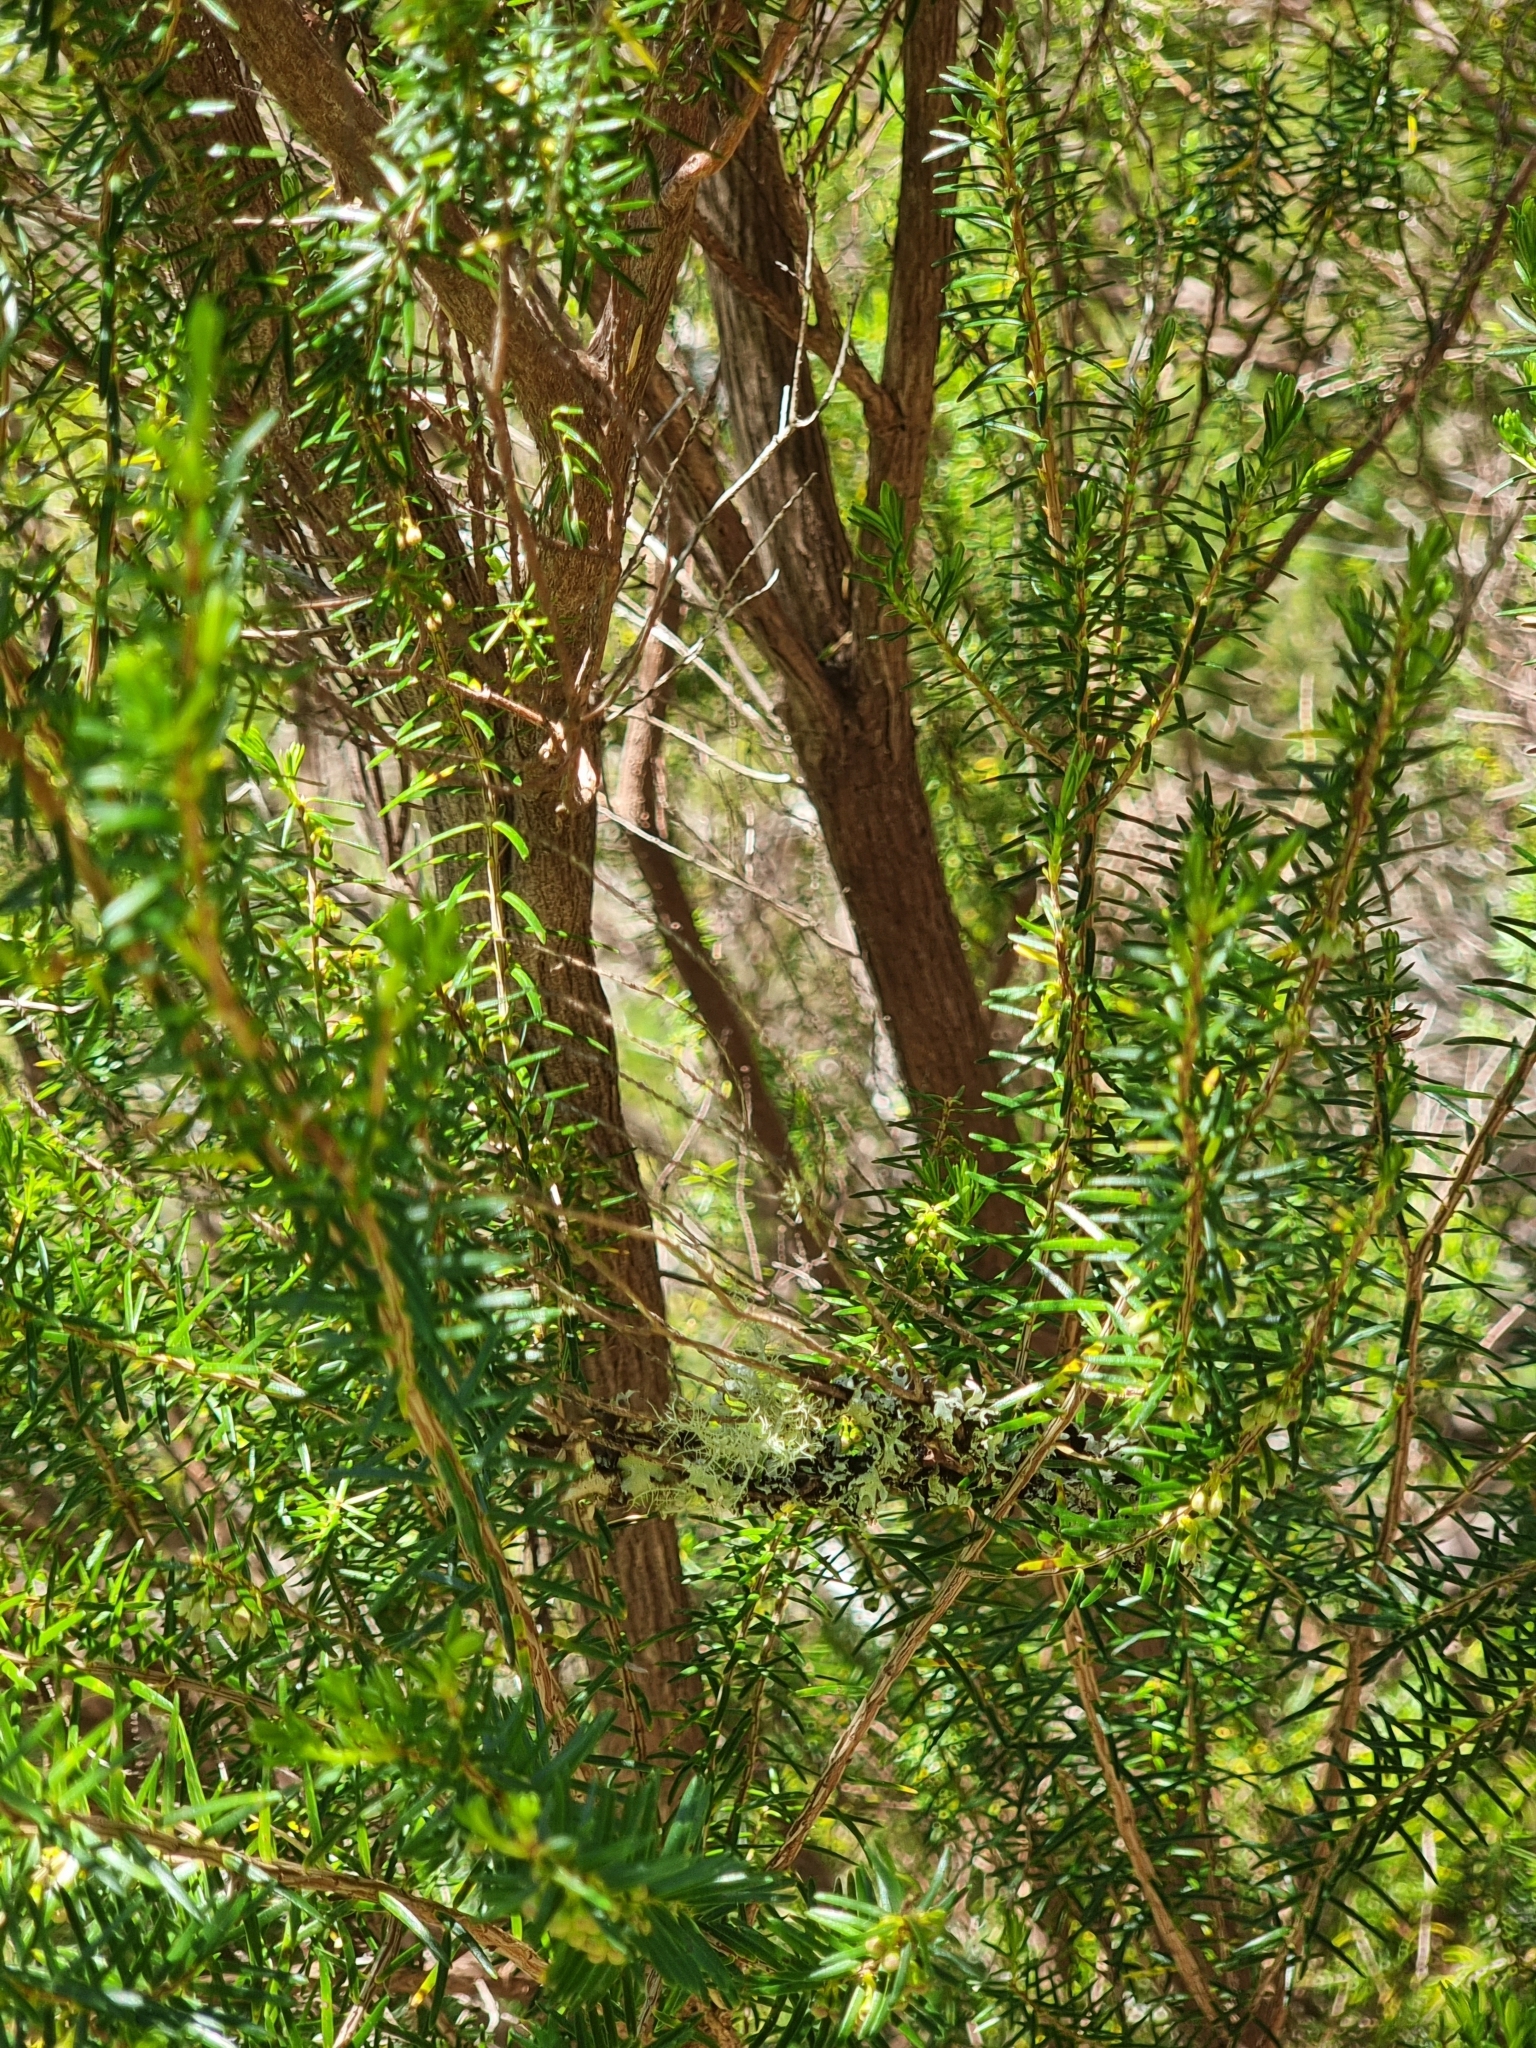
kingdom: Plantae
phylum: Tracheophyta
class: Magnoliopsida
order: Ericales
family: Ericaceae
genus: Erica
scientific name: Erica platycodon
